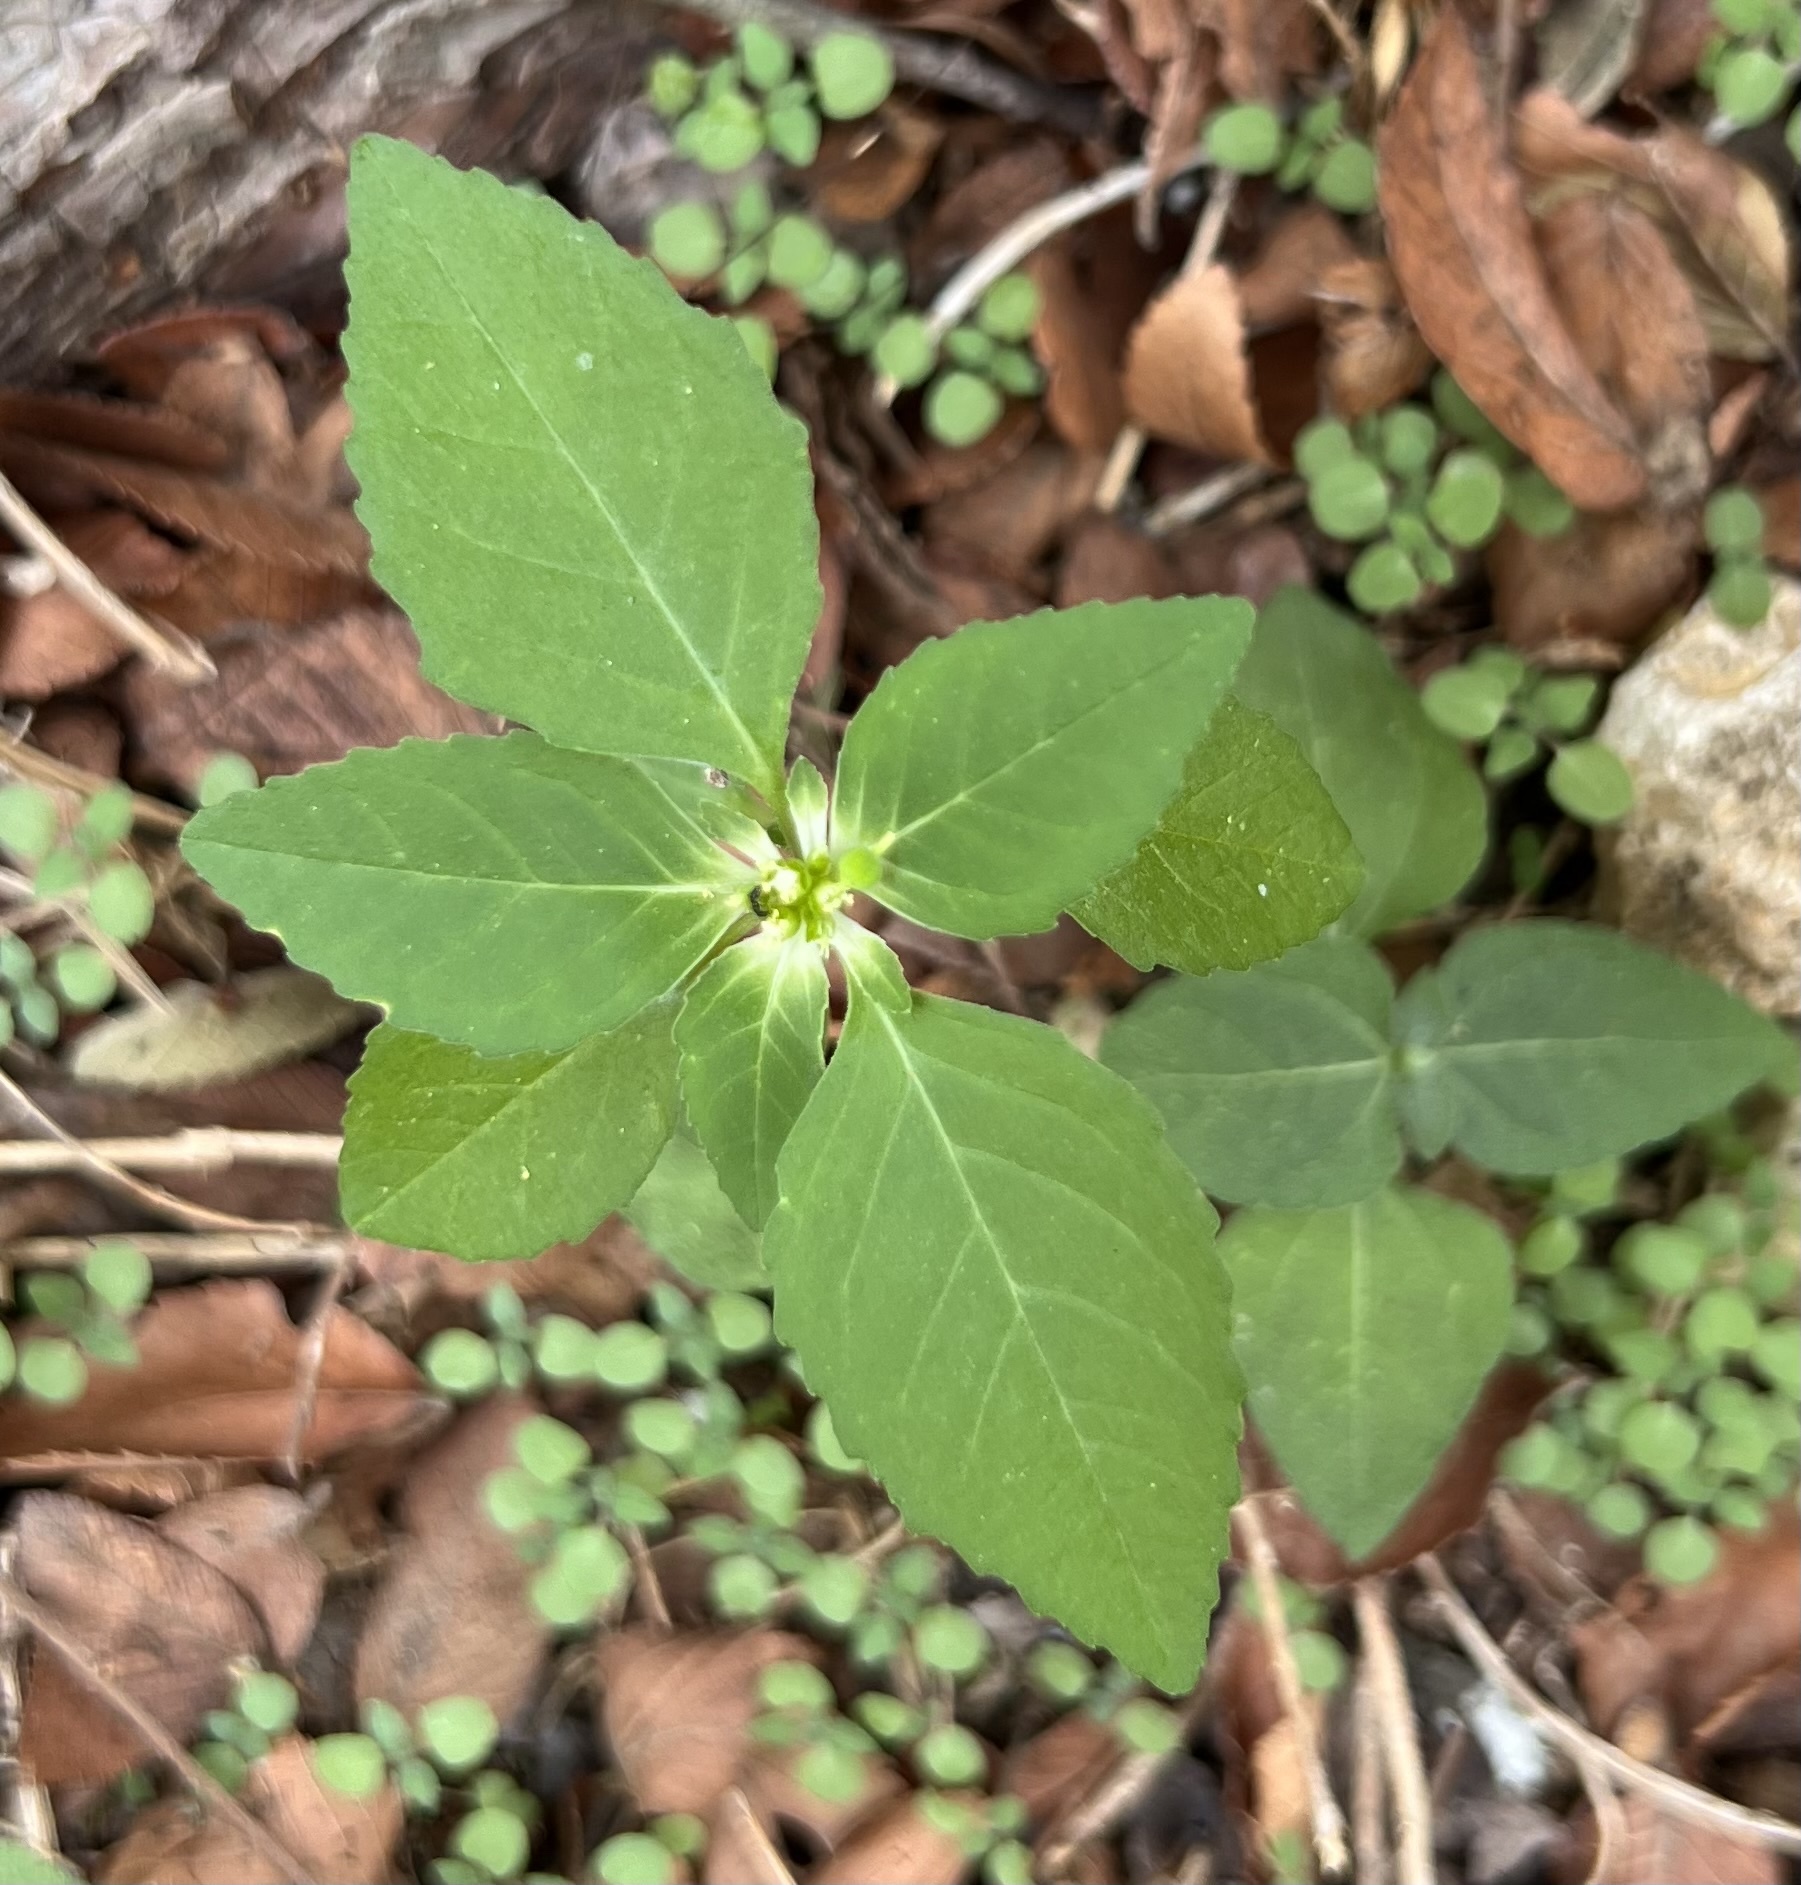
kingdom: Plantae
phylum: Tracheophyta
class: Magnoliopsida
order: Malpighiales
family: Euphorbiaceae
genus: Euphorbia
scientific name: Euphorbia dentata
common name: Dentate spurge
